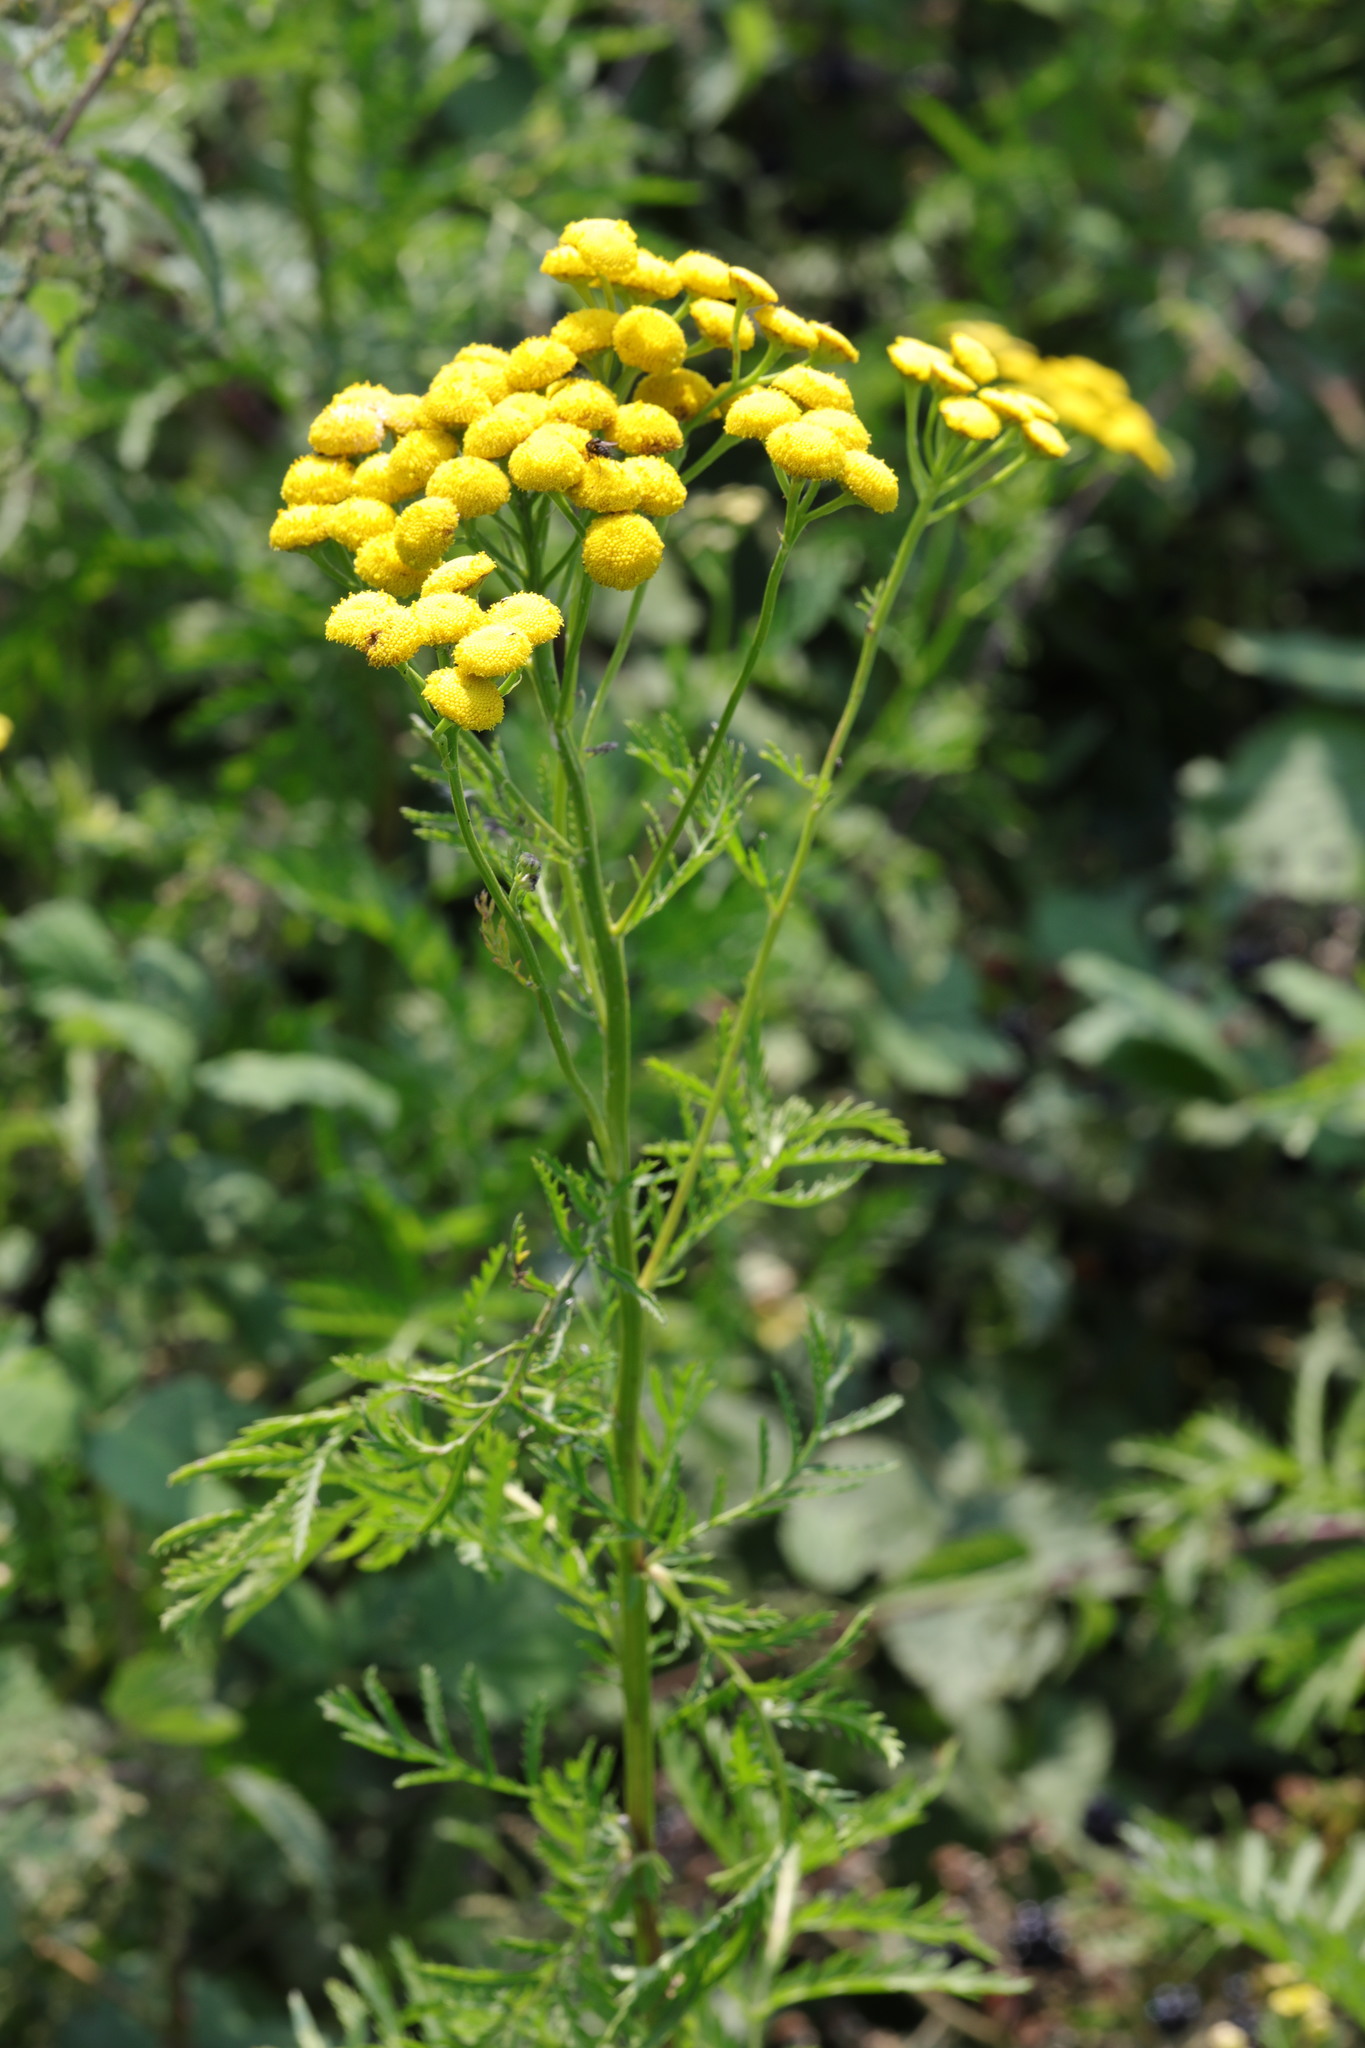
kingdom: Plantae
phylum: Tracheophyta
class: Magnoliopsida
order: Asterales
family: Asteraceae
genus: Tanacetum
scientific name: Tanacetum vulgare
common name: Common tansy
